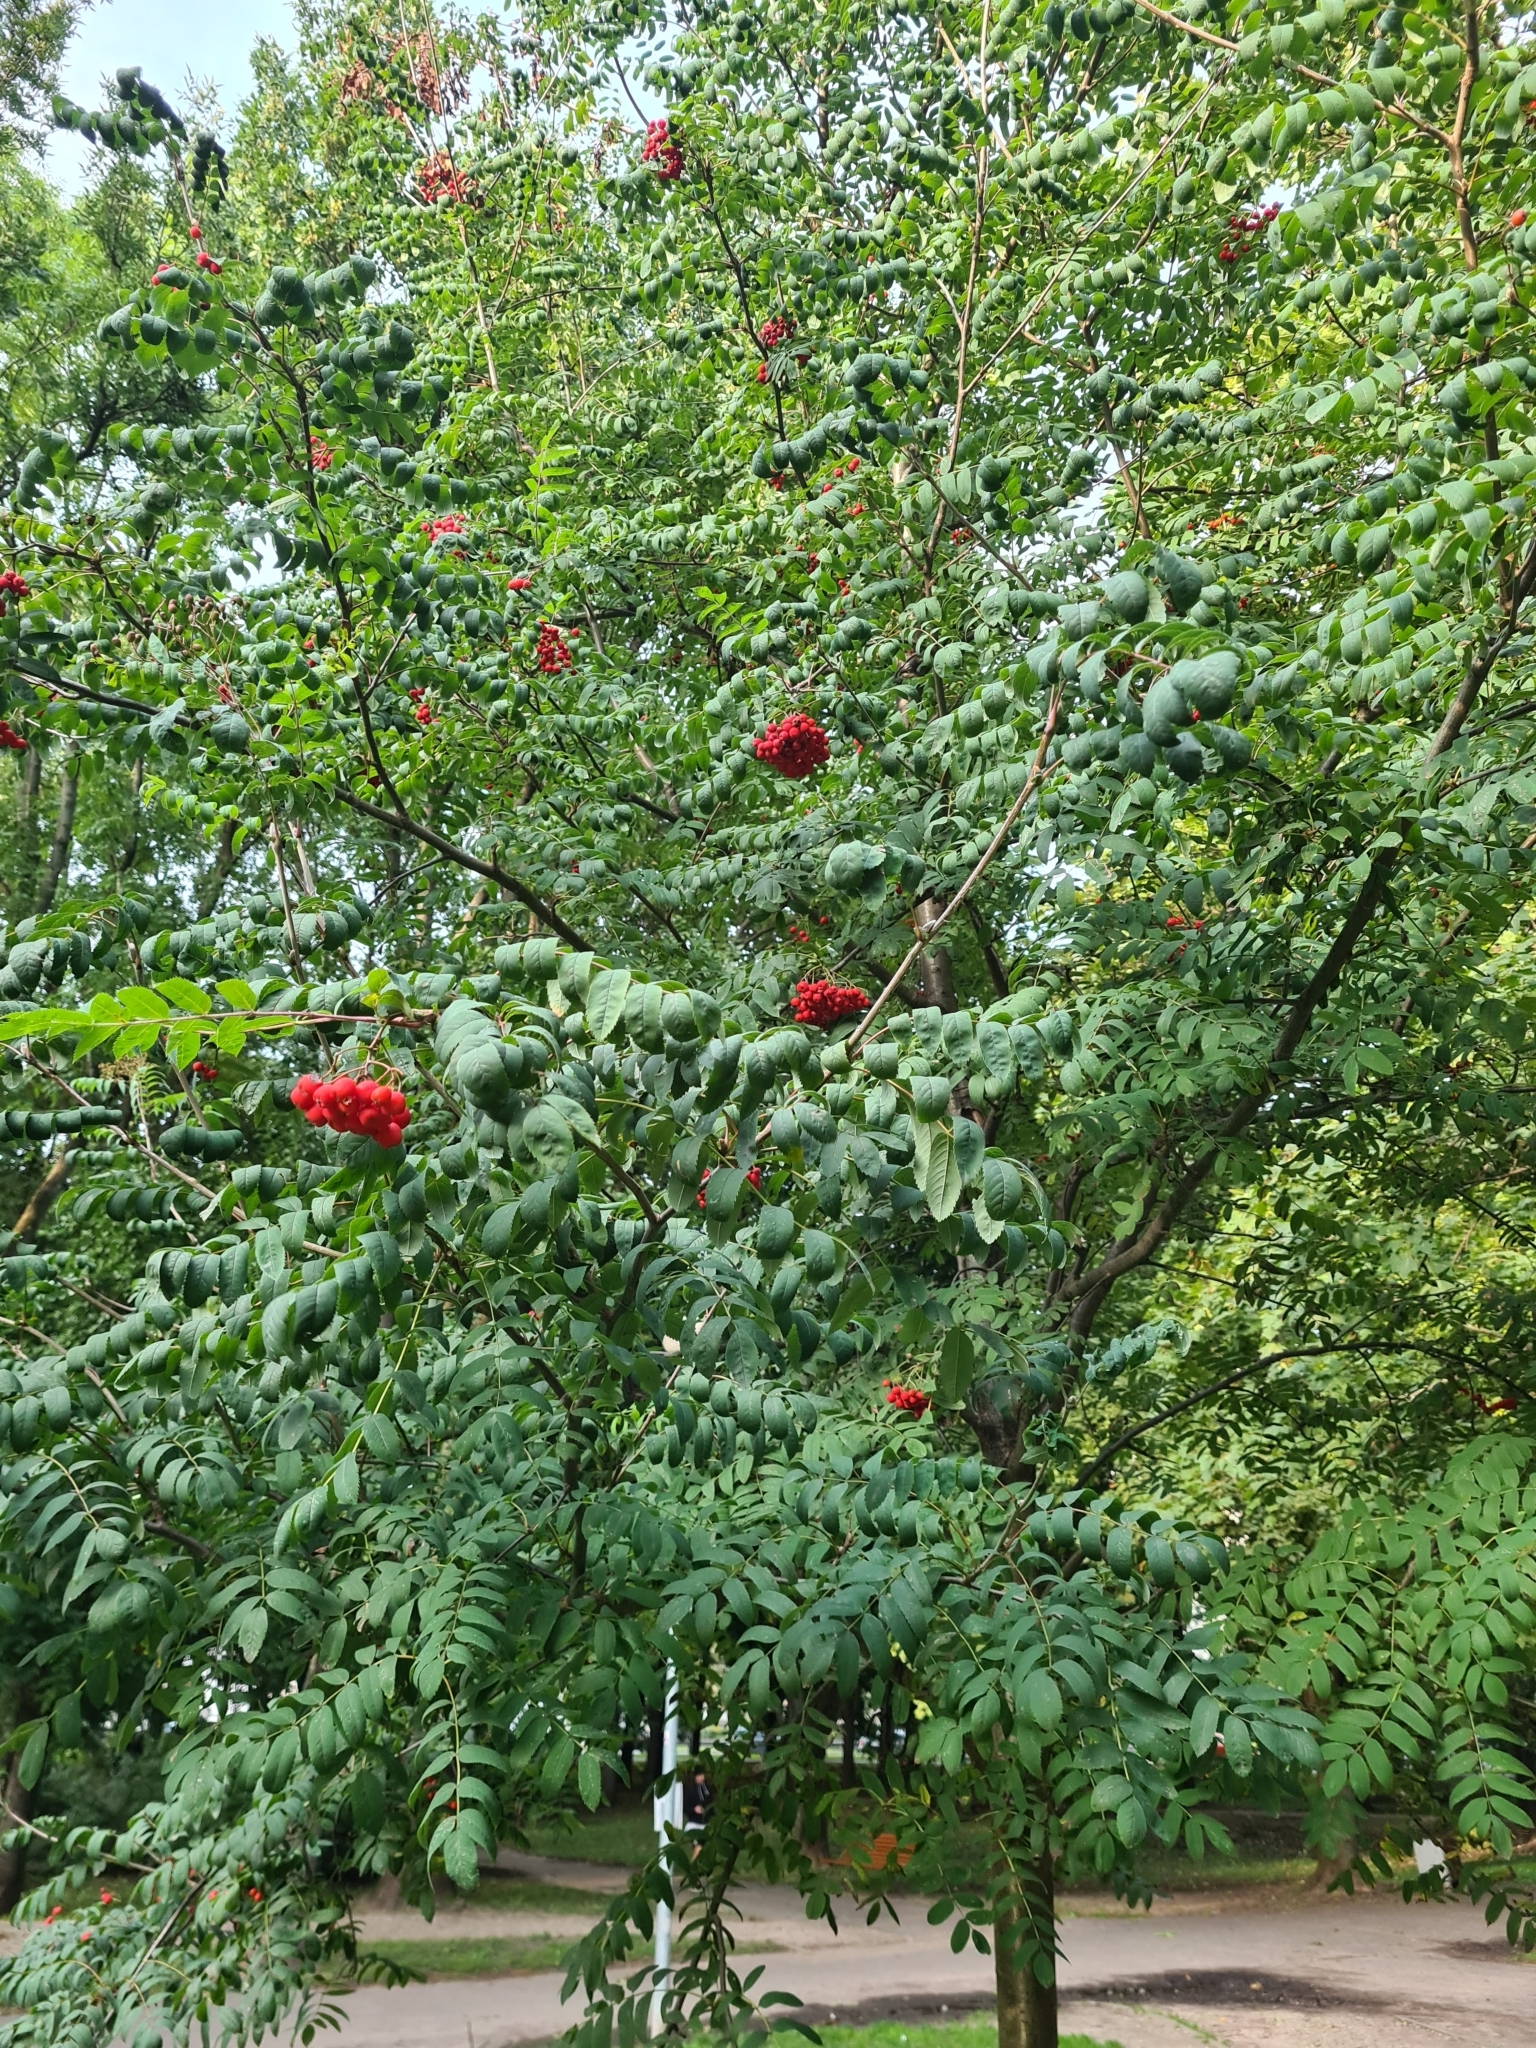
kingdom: Plantae
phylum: Tracheophyta
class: Magnoliopsida
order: Rosales
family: Rosaceae
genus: Sorbus
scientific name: Sorbus aucuparia
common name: Rowan
